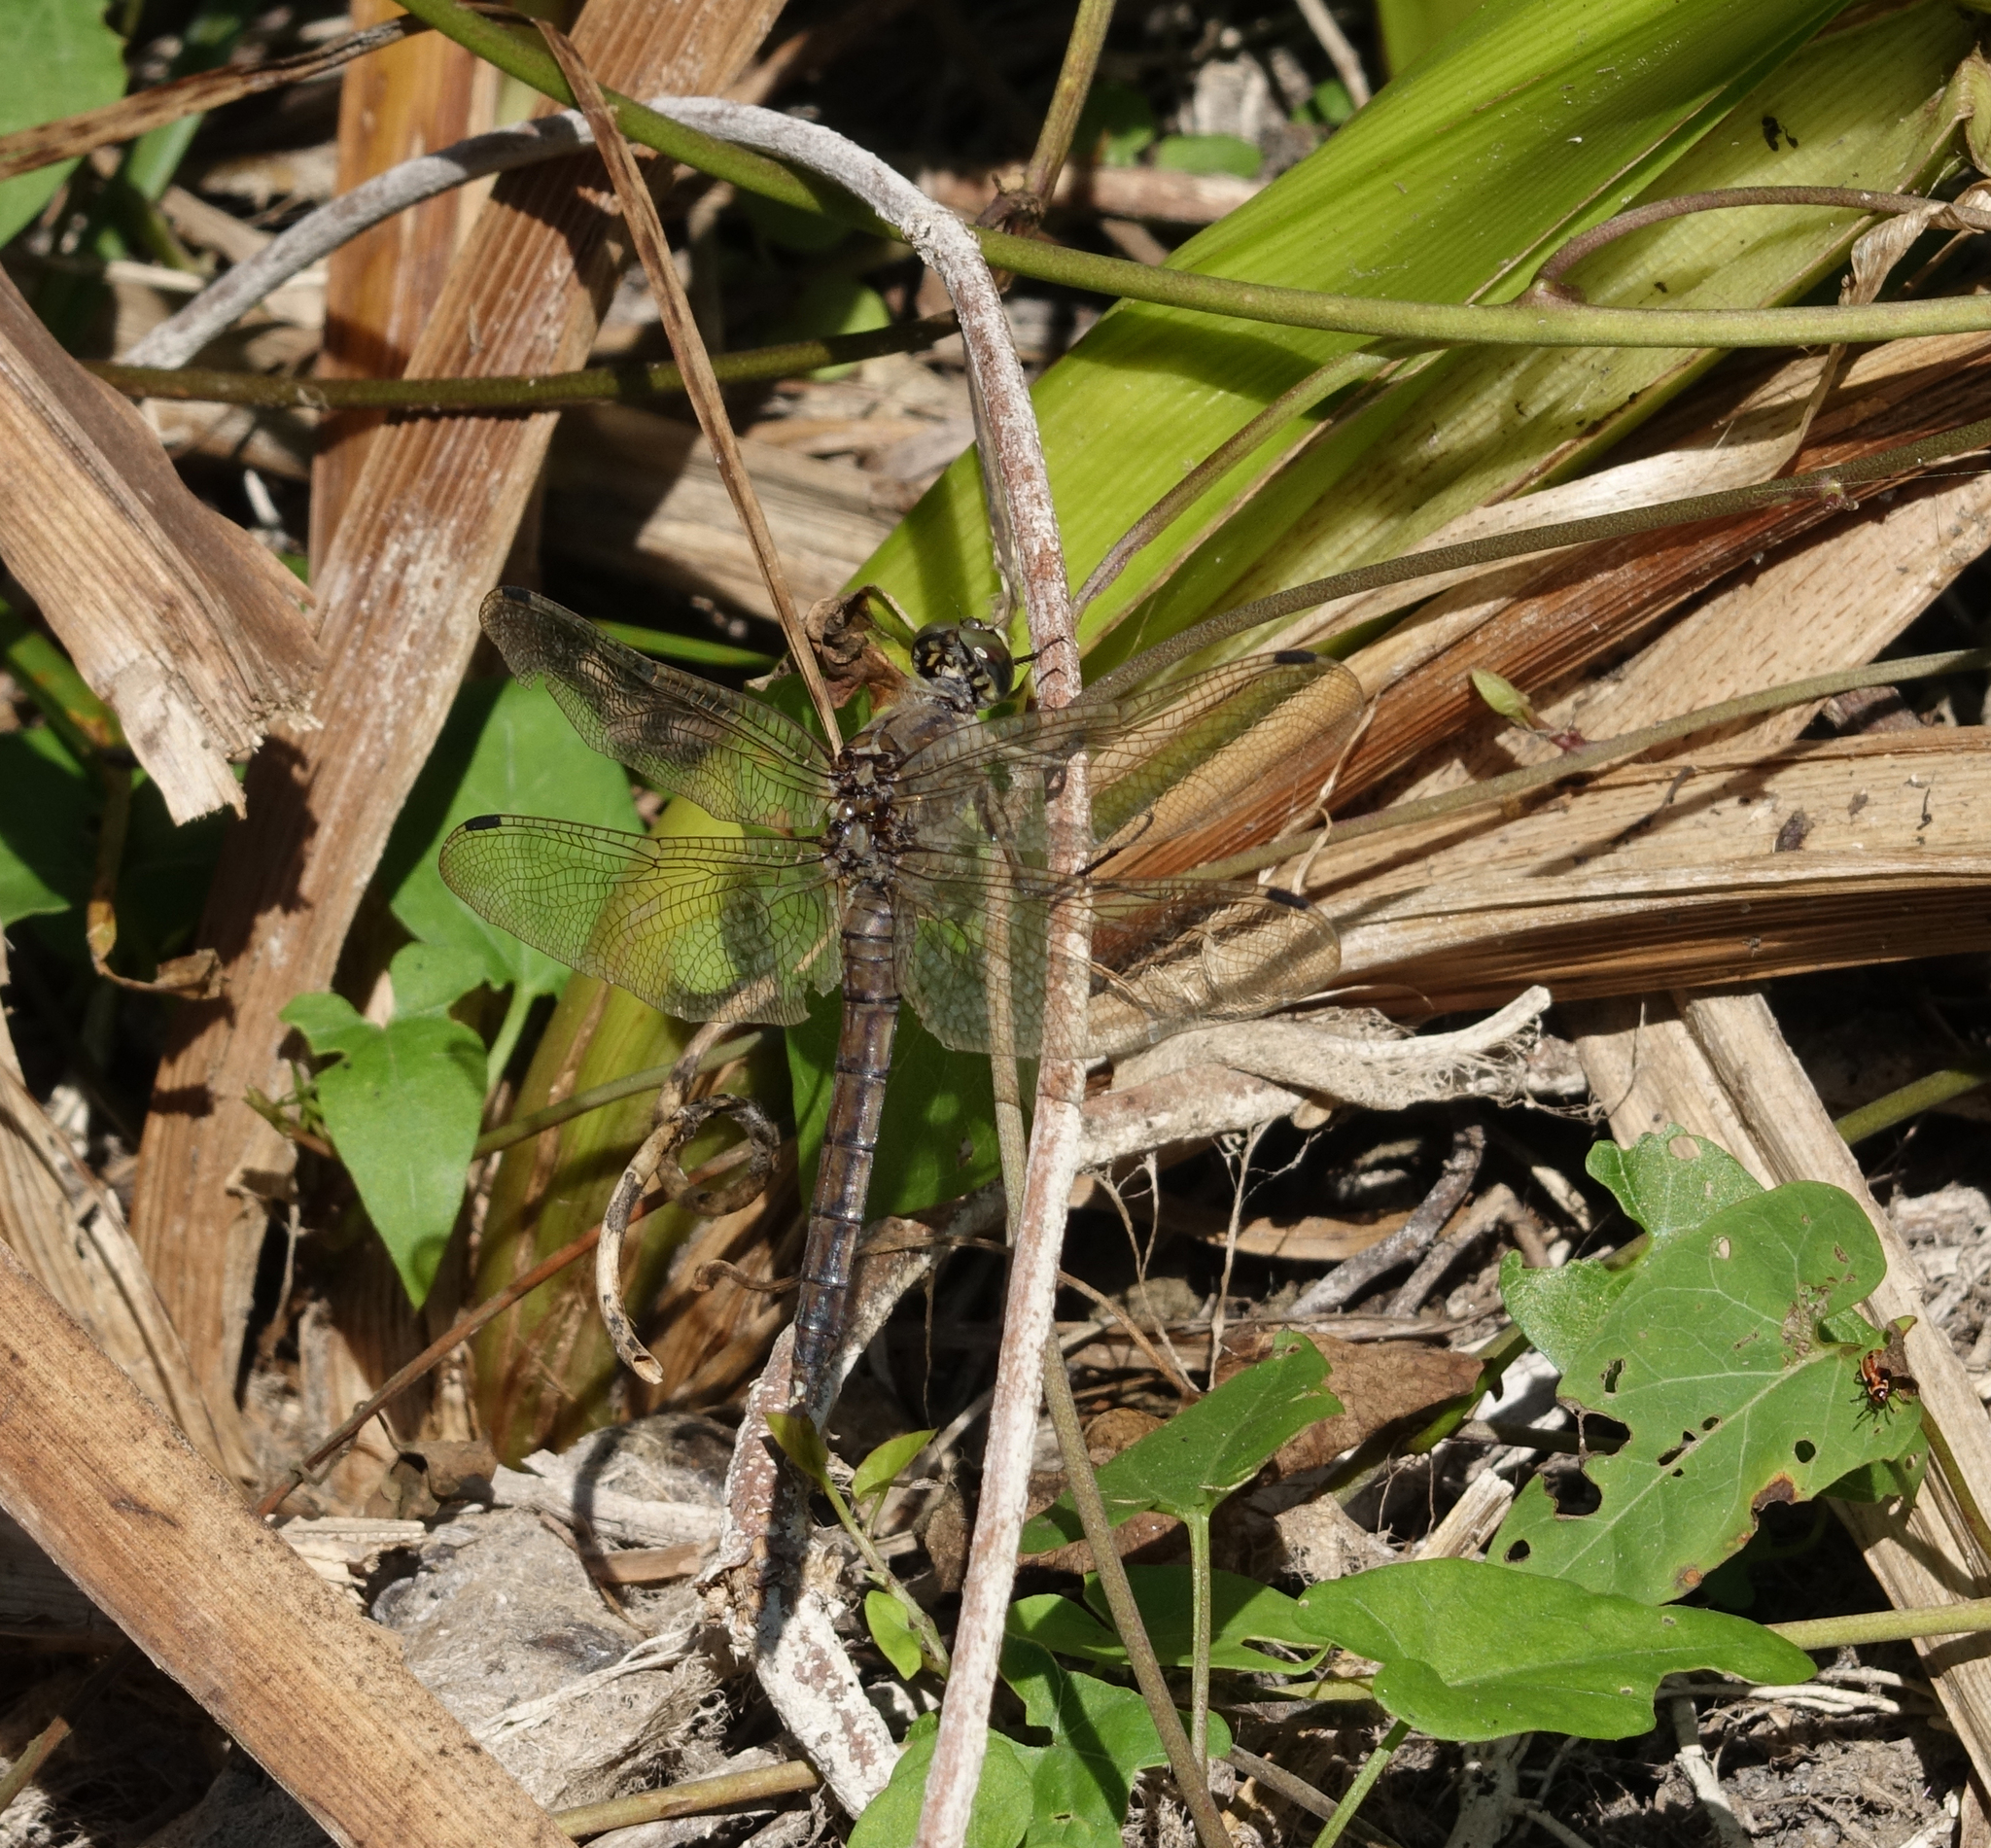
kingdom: Animalia
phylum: Arthropoda
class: Insecta
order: Odonata
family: Libellulidae
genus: Orthetrum
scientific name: Orthetrum cancellatum
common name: Black-tailed skimmer
